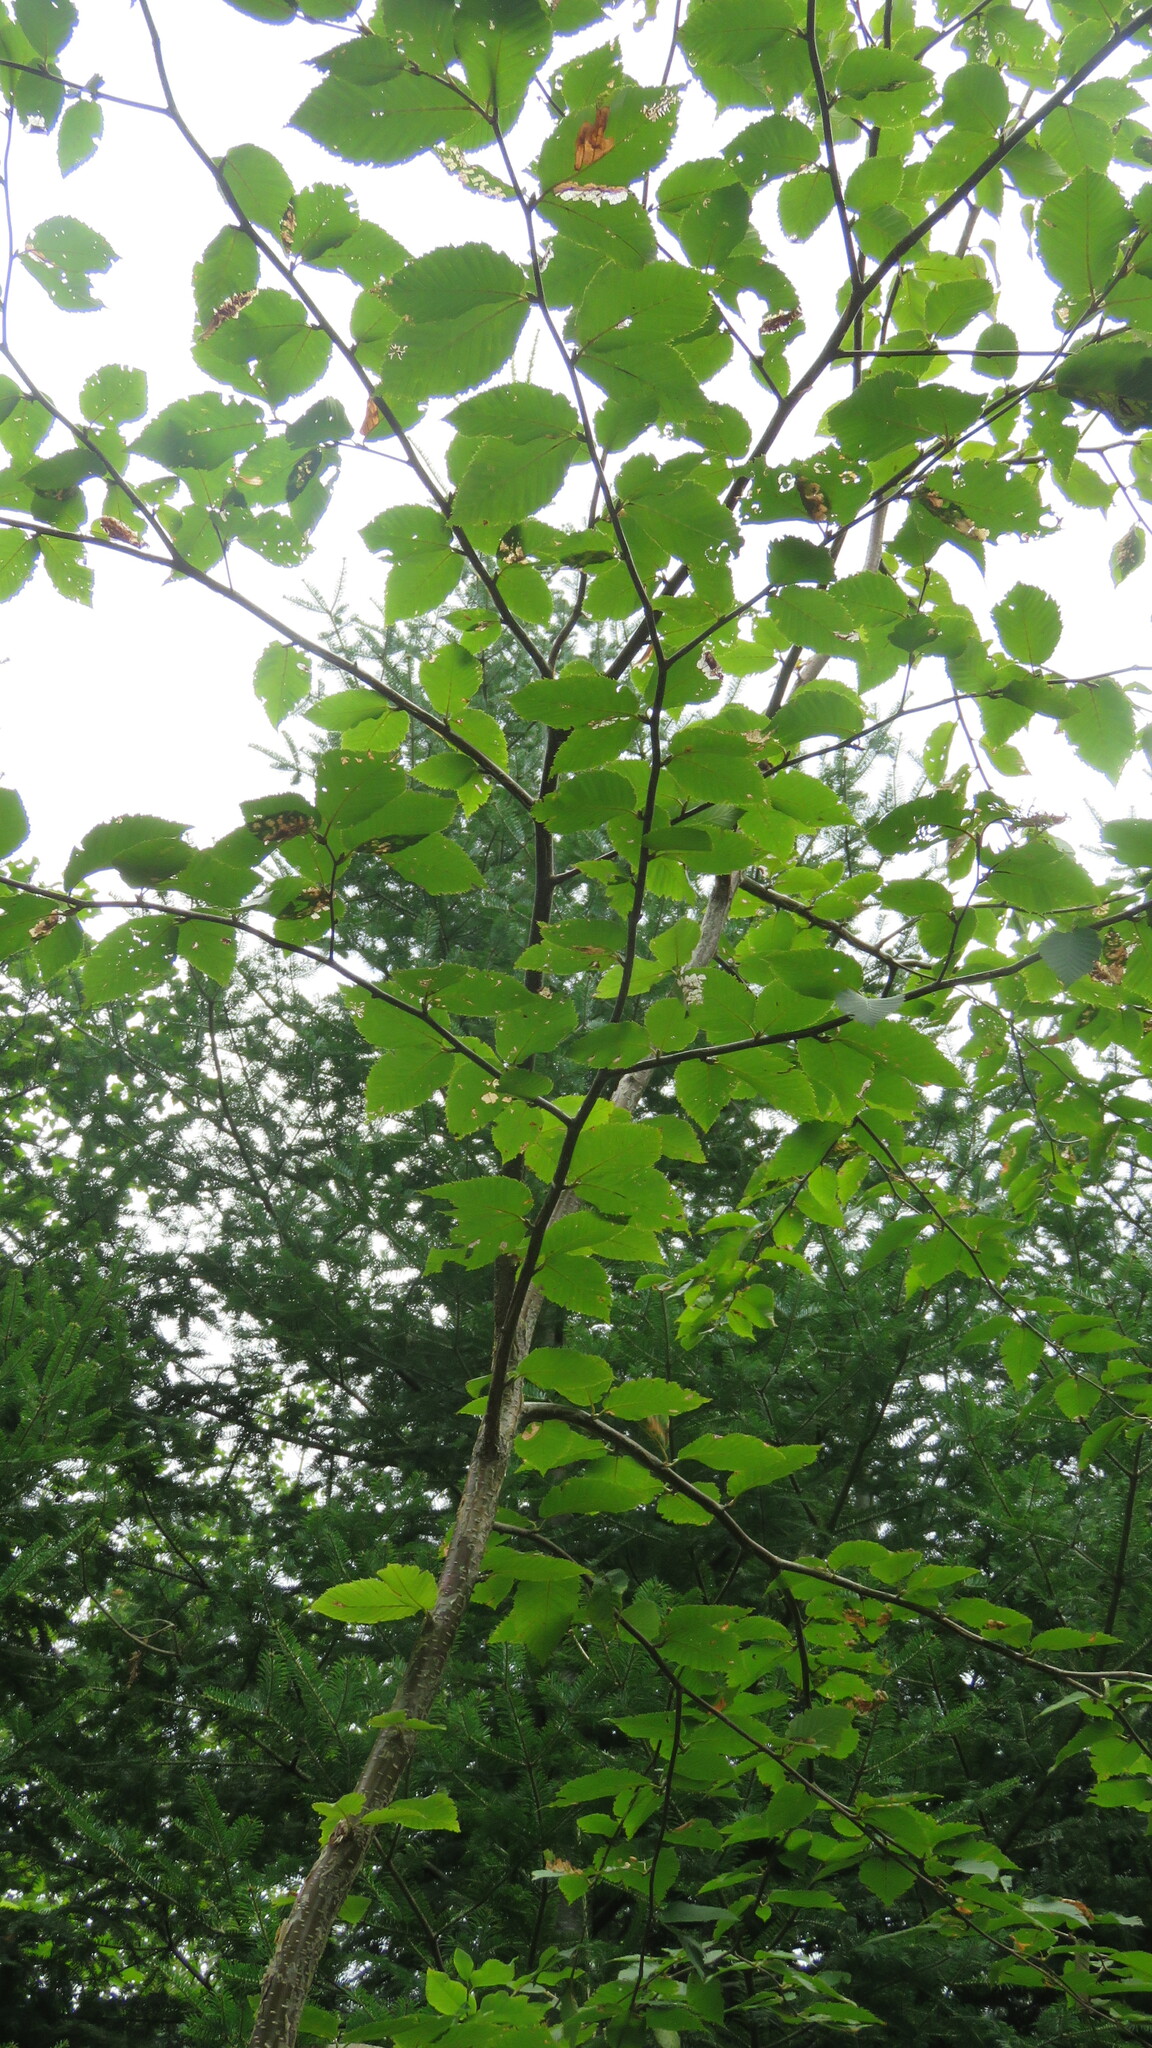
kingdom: Plantae
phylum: Tracheophyta
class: Magnoliopsida
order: Fagales
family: Betulaceae
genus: Betula
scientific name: Betula alleghaniensis
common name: Yellow birch
